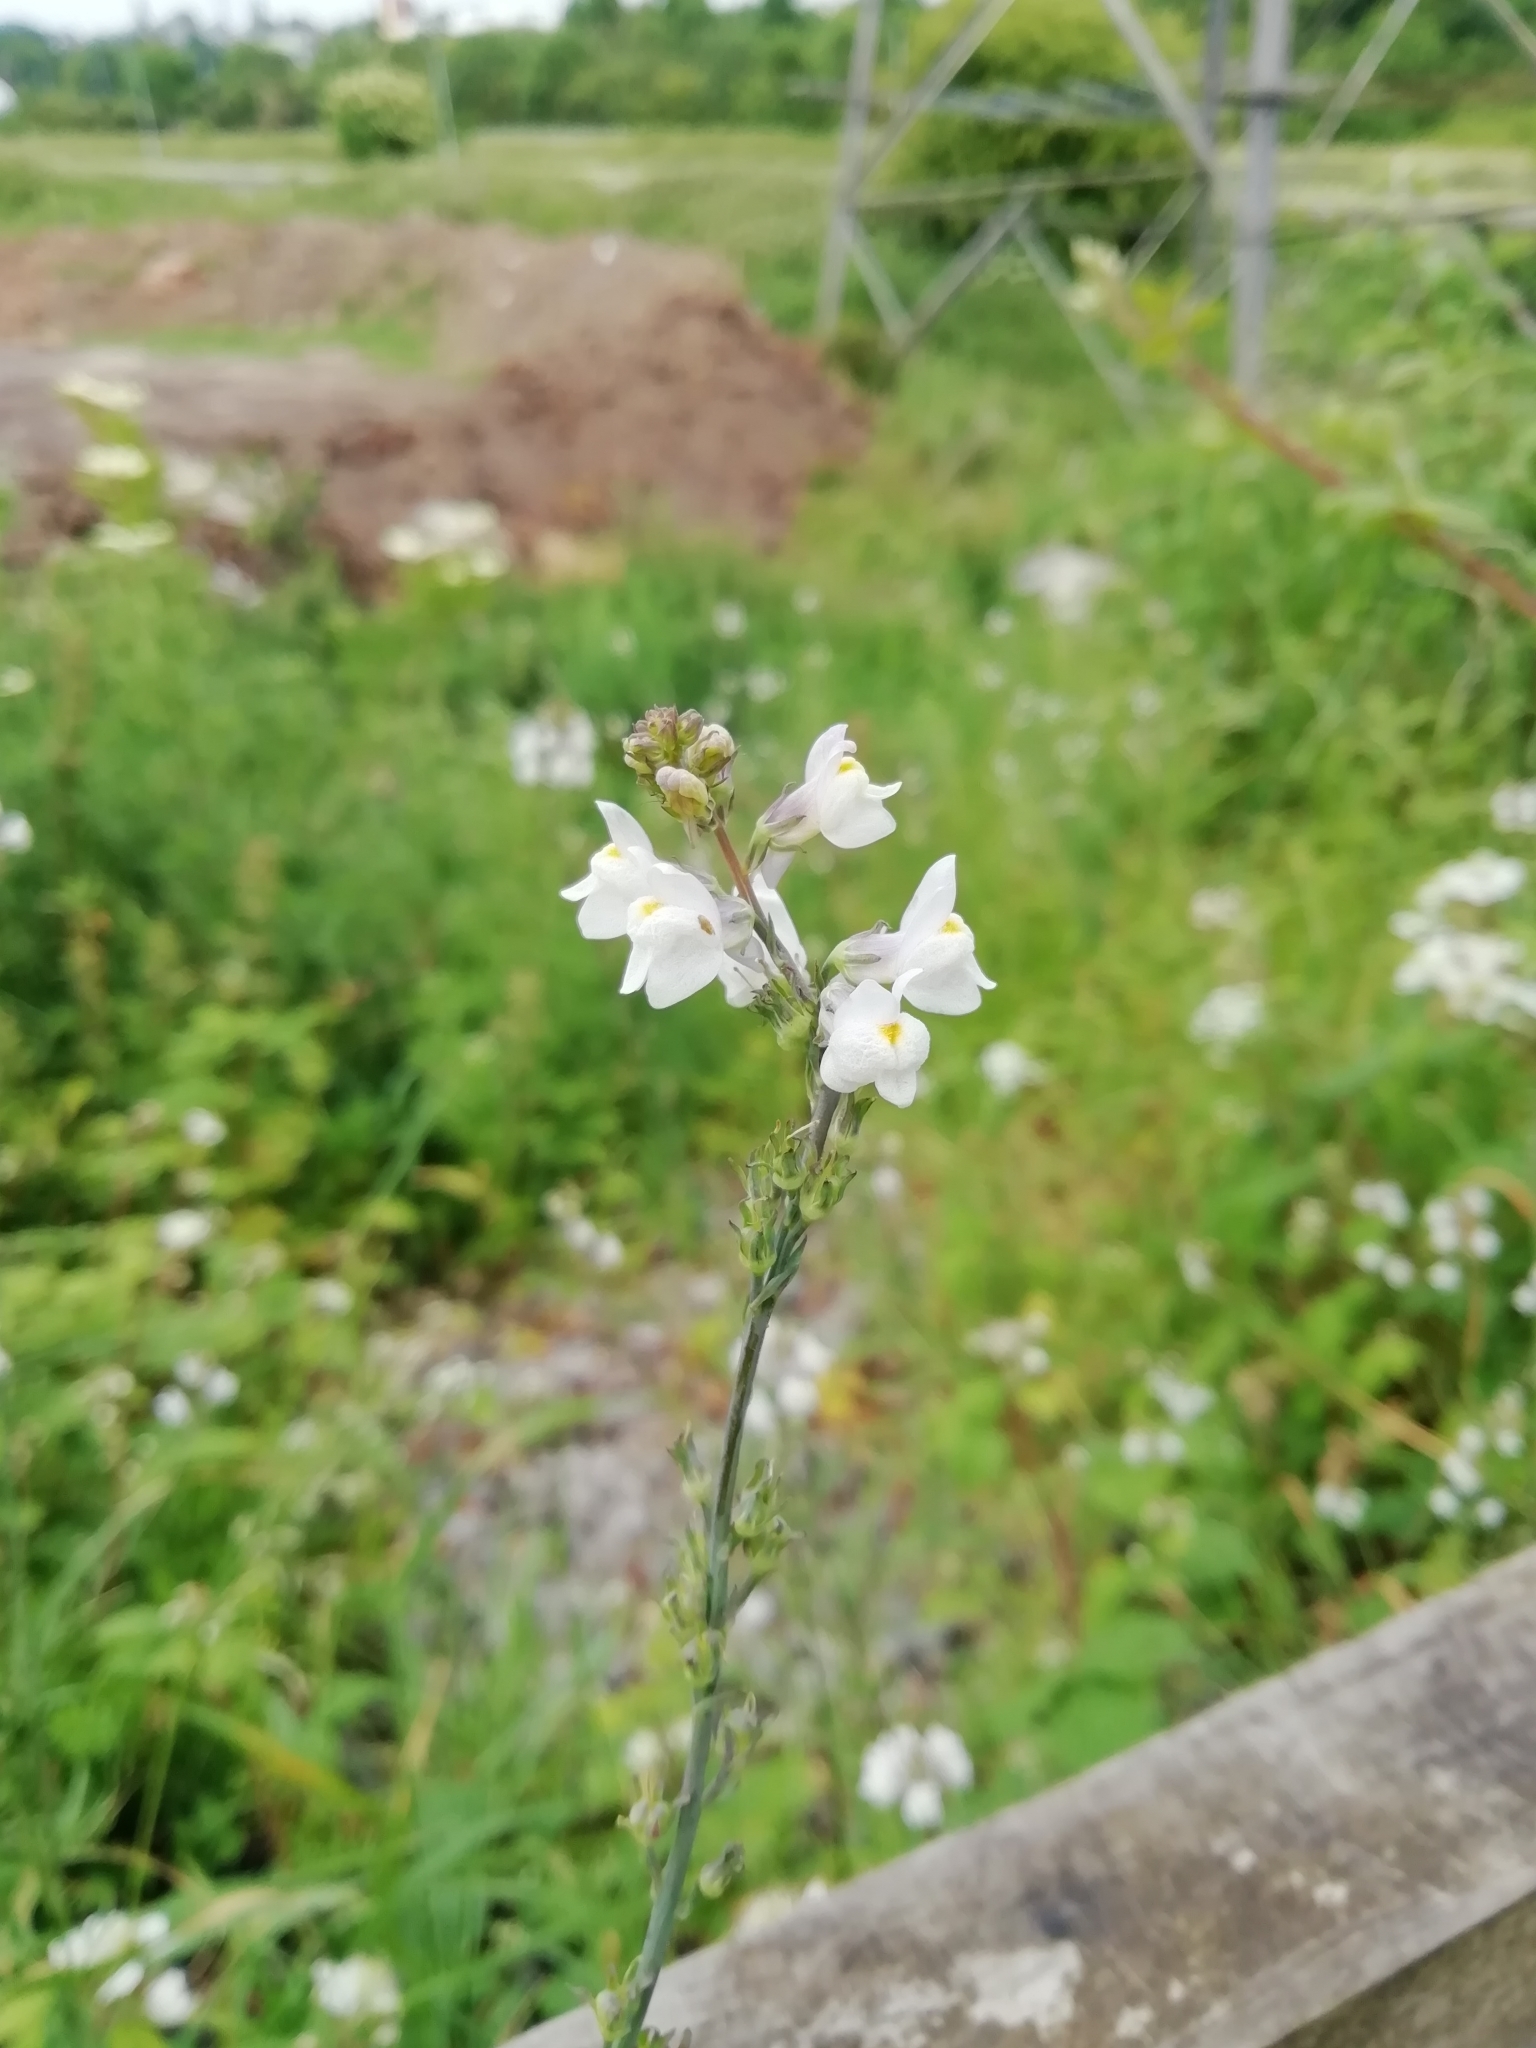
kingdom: Plantae
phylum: Tracheophyta
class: Magnoliopsida
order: Lamiales
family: Plantaginaceae
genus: Linaria
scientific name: Linaria repens
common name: Pale toadflax
